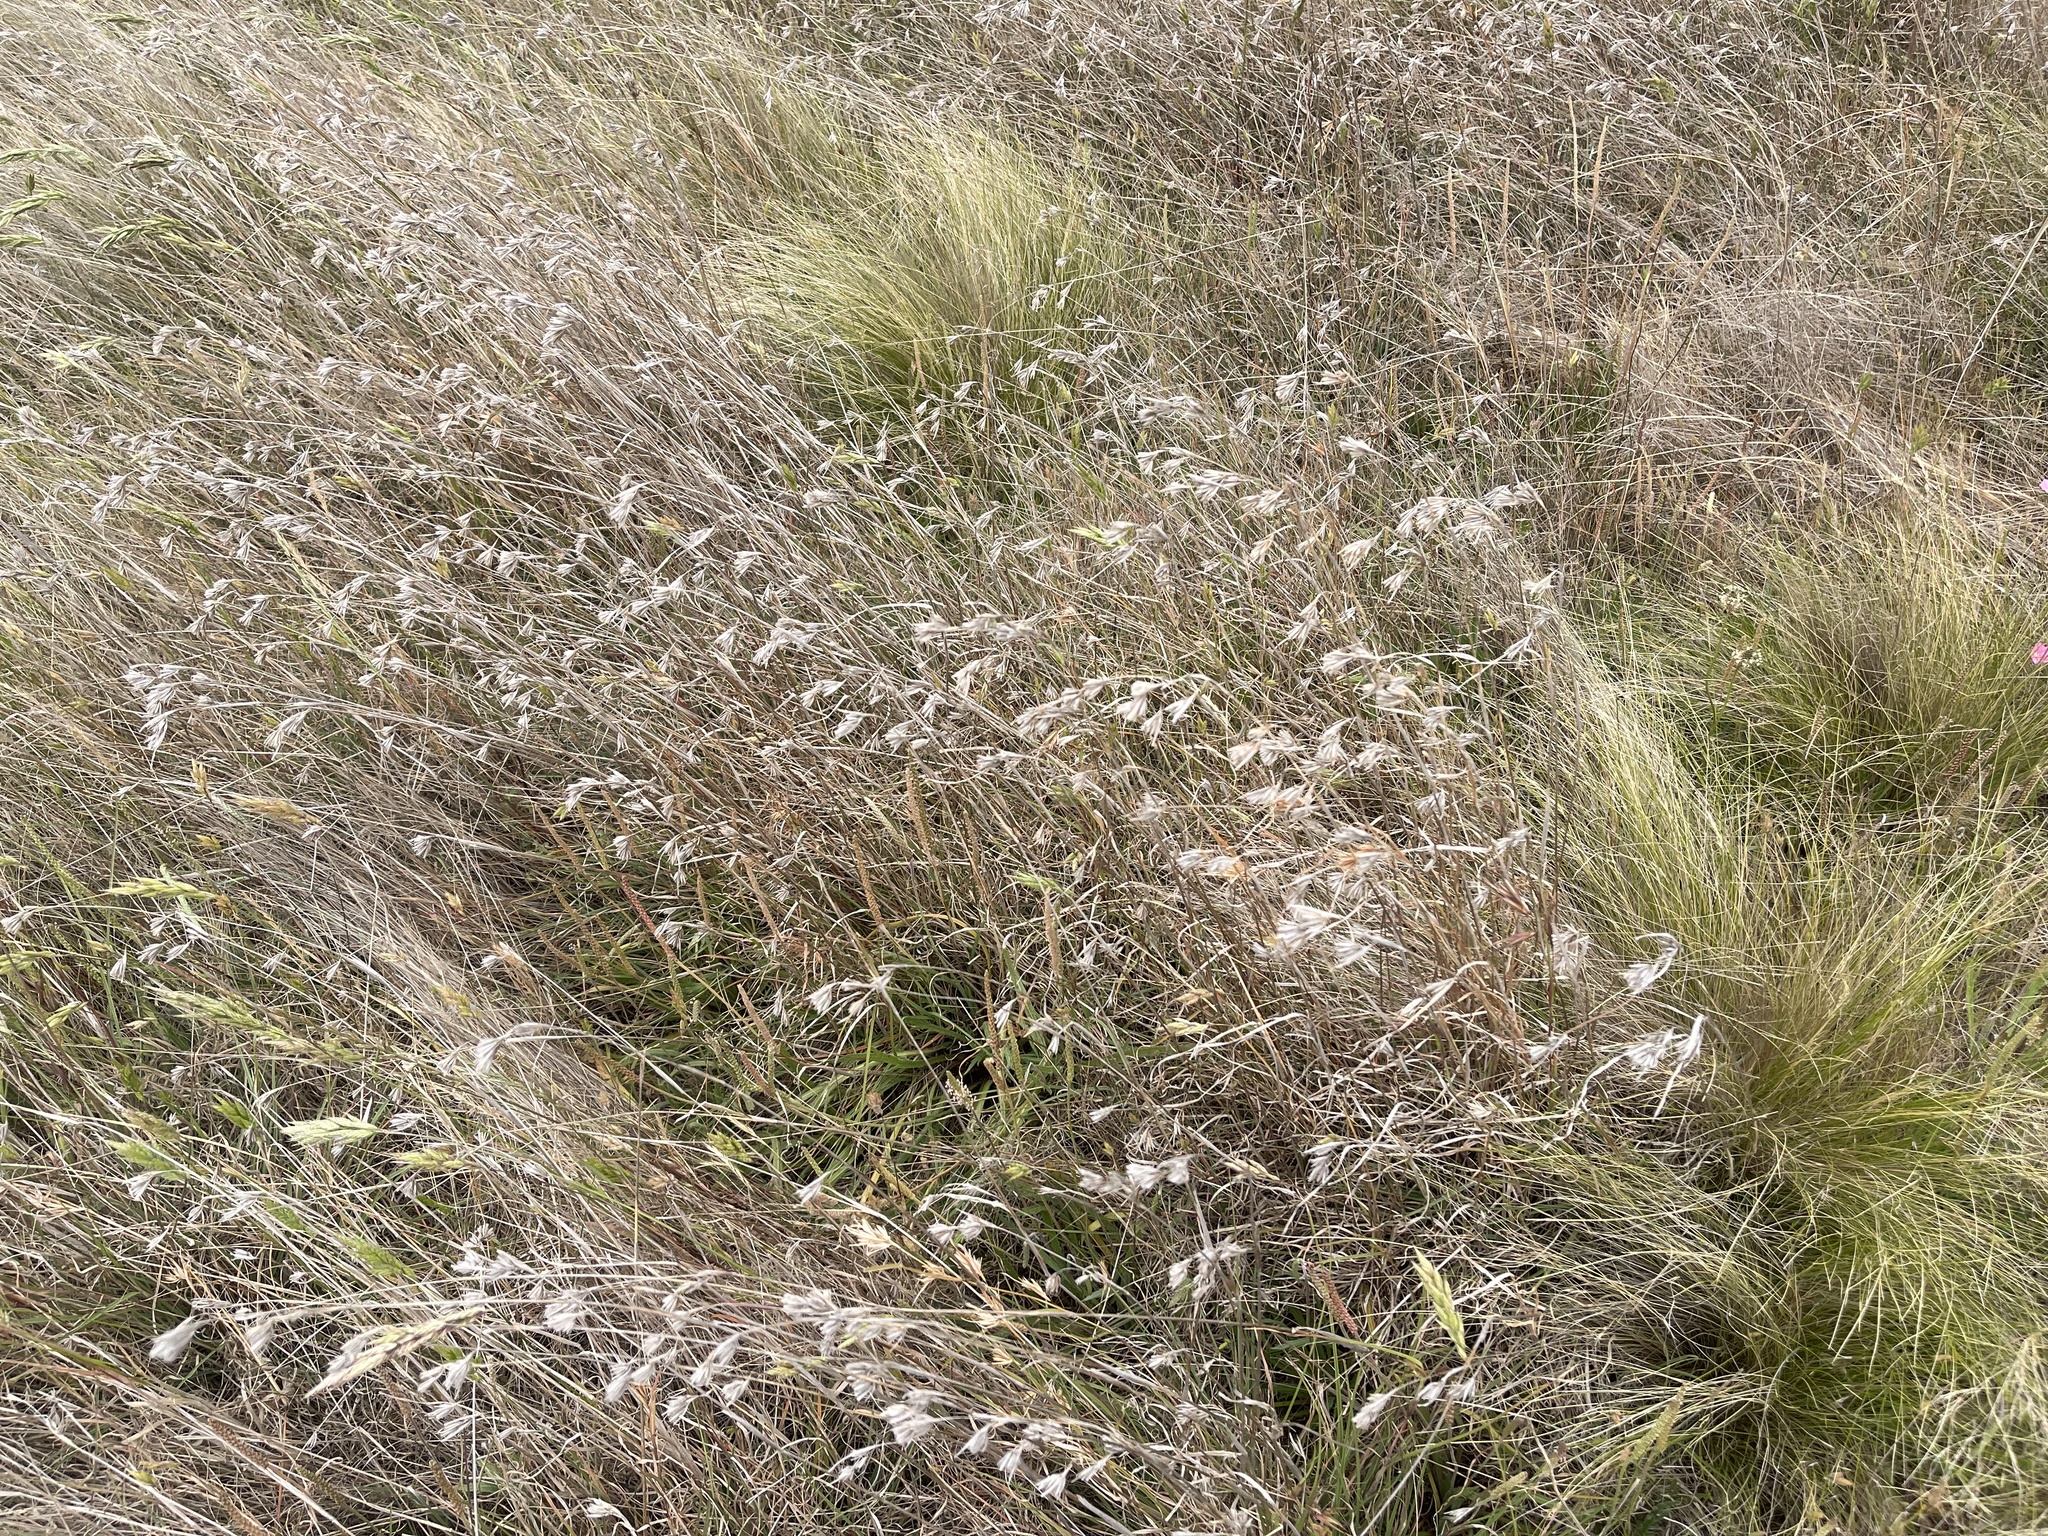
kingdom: Plantae
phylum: Tracheophyta
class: Liliopsida
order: Poales
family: Poaceae
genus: Themeda
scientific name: Themeda triandra
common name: Kangaroo grass
